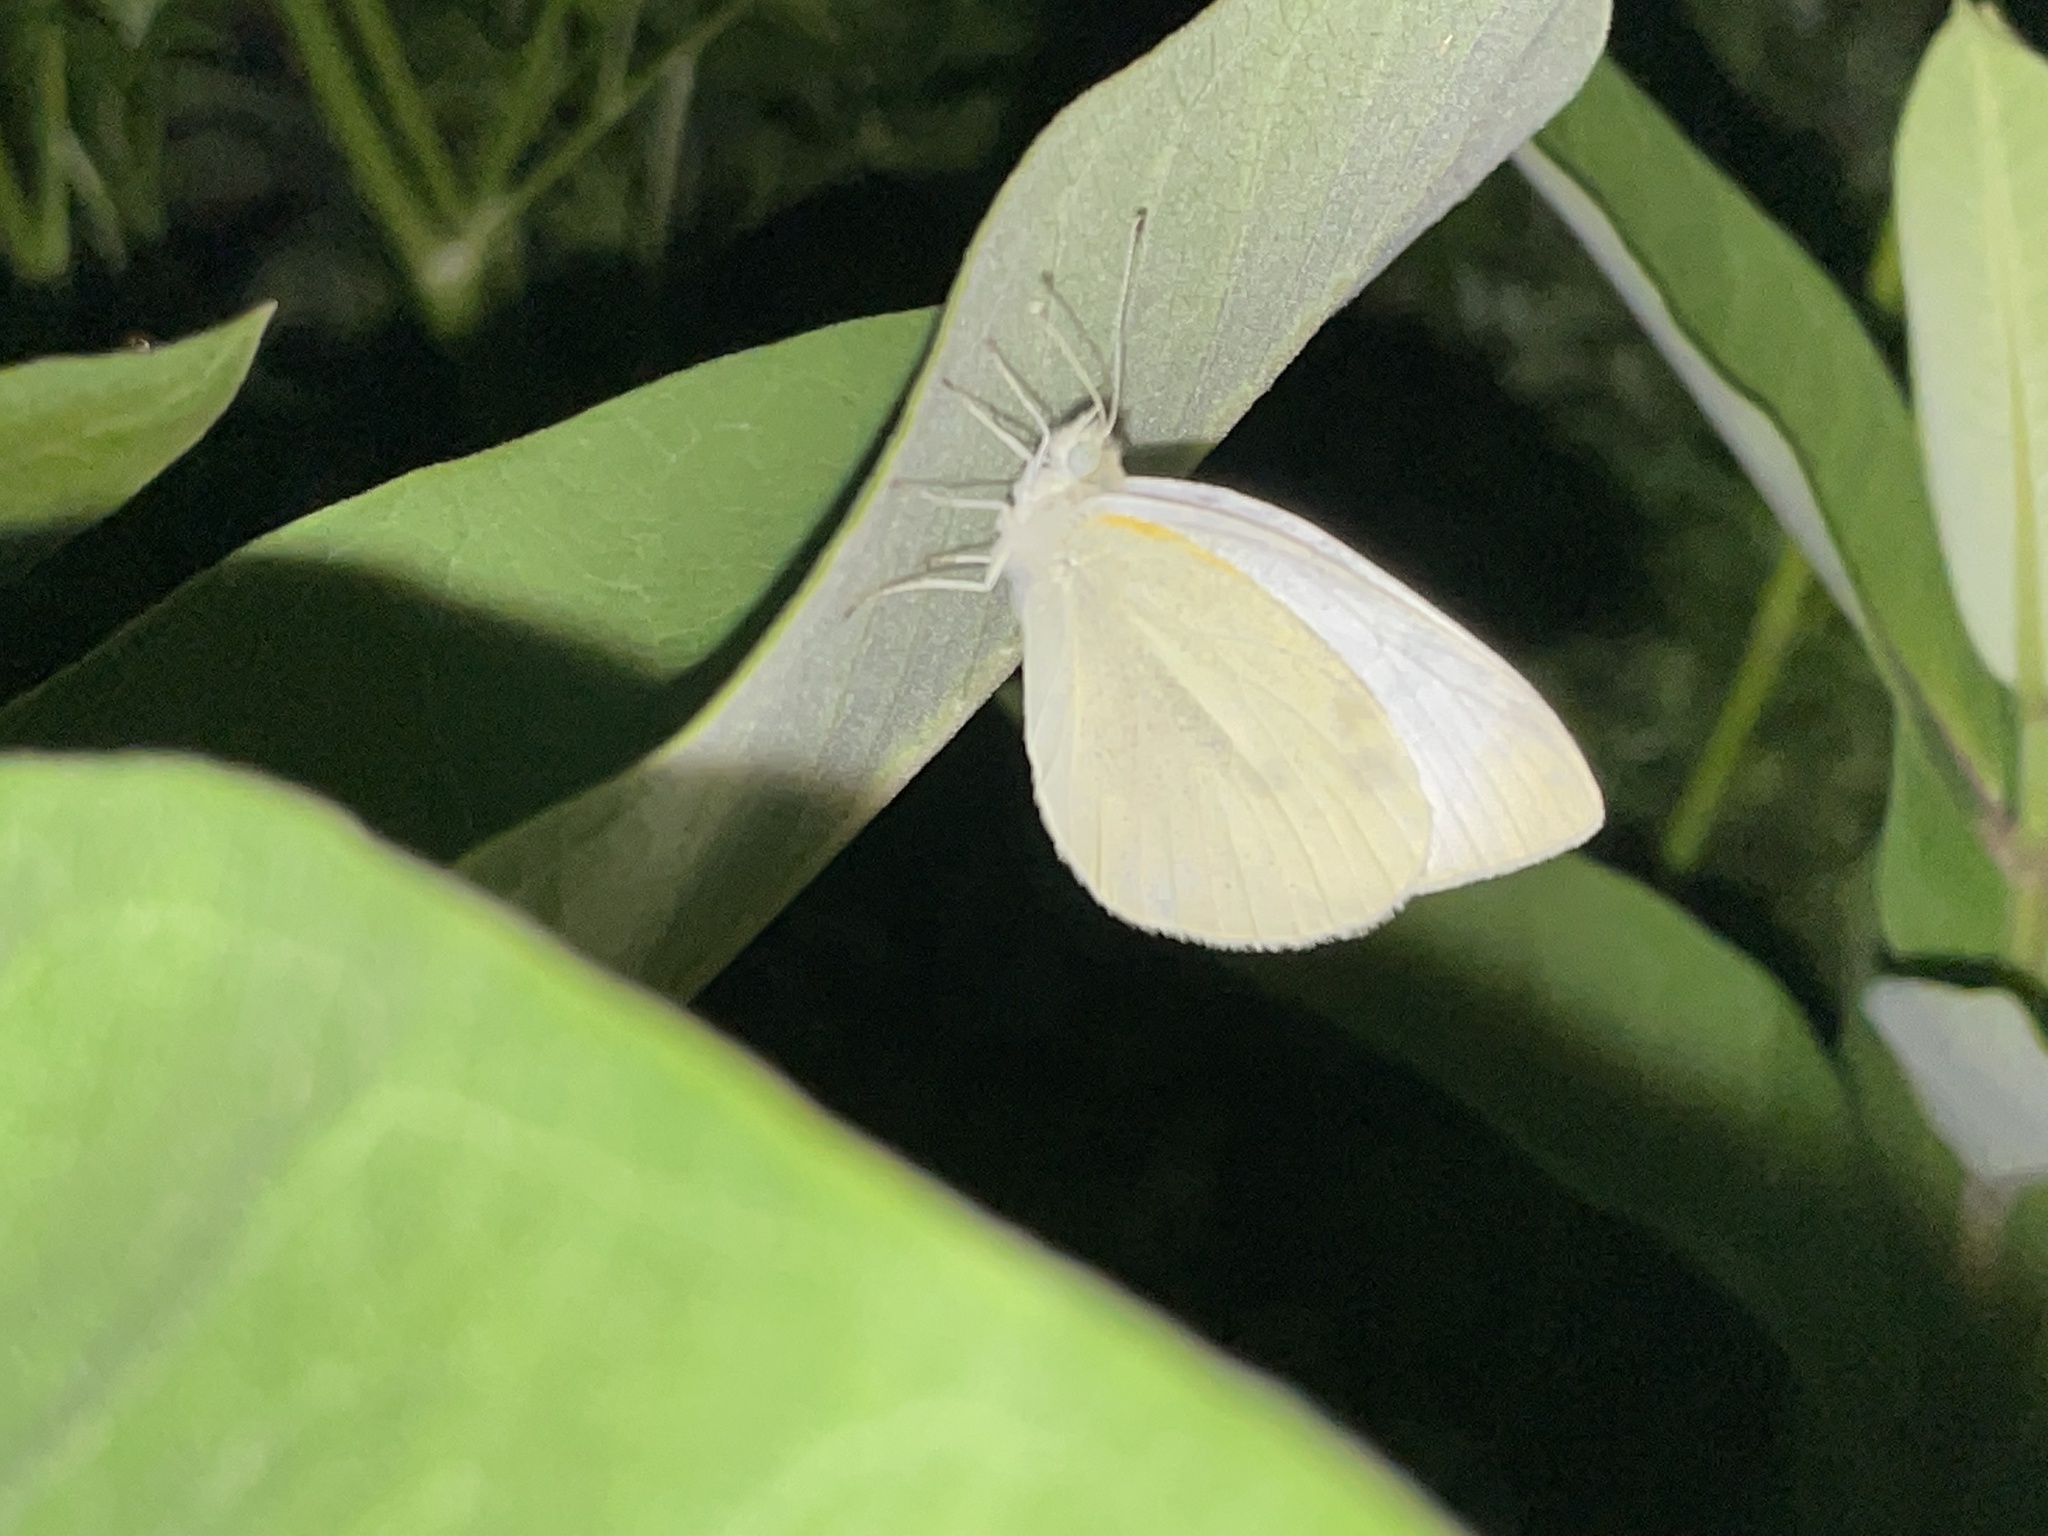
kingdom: Animalia
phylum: Arthropoda
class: Insecta
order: Lepidoptera
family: Pieridae
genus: Pieris
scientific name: Pieris rapae
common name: Small white
